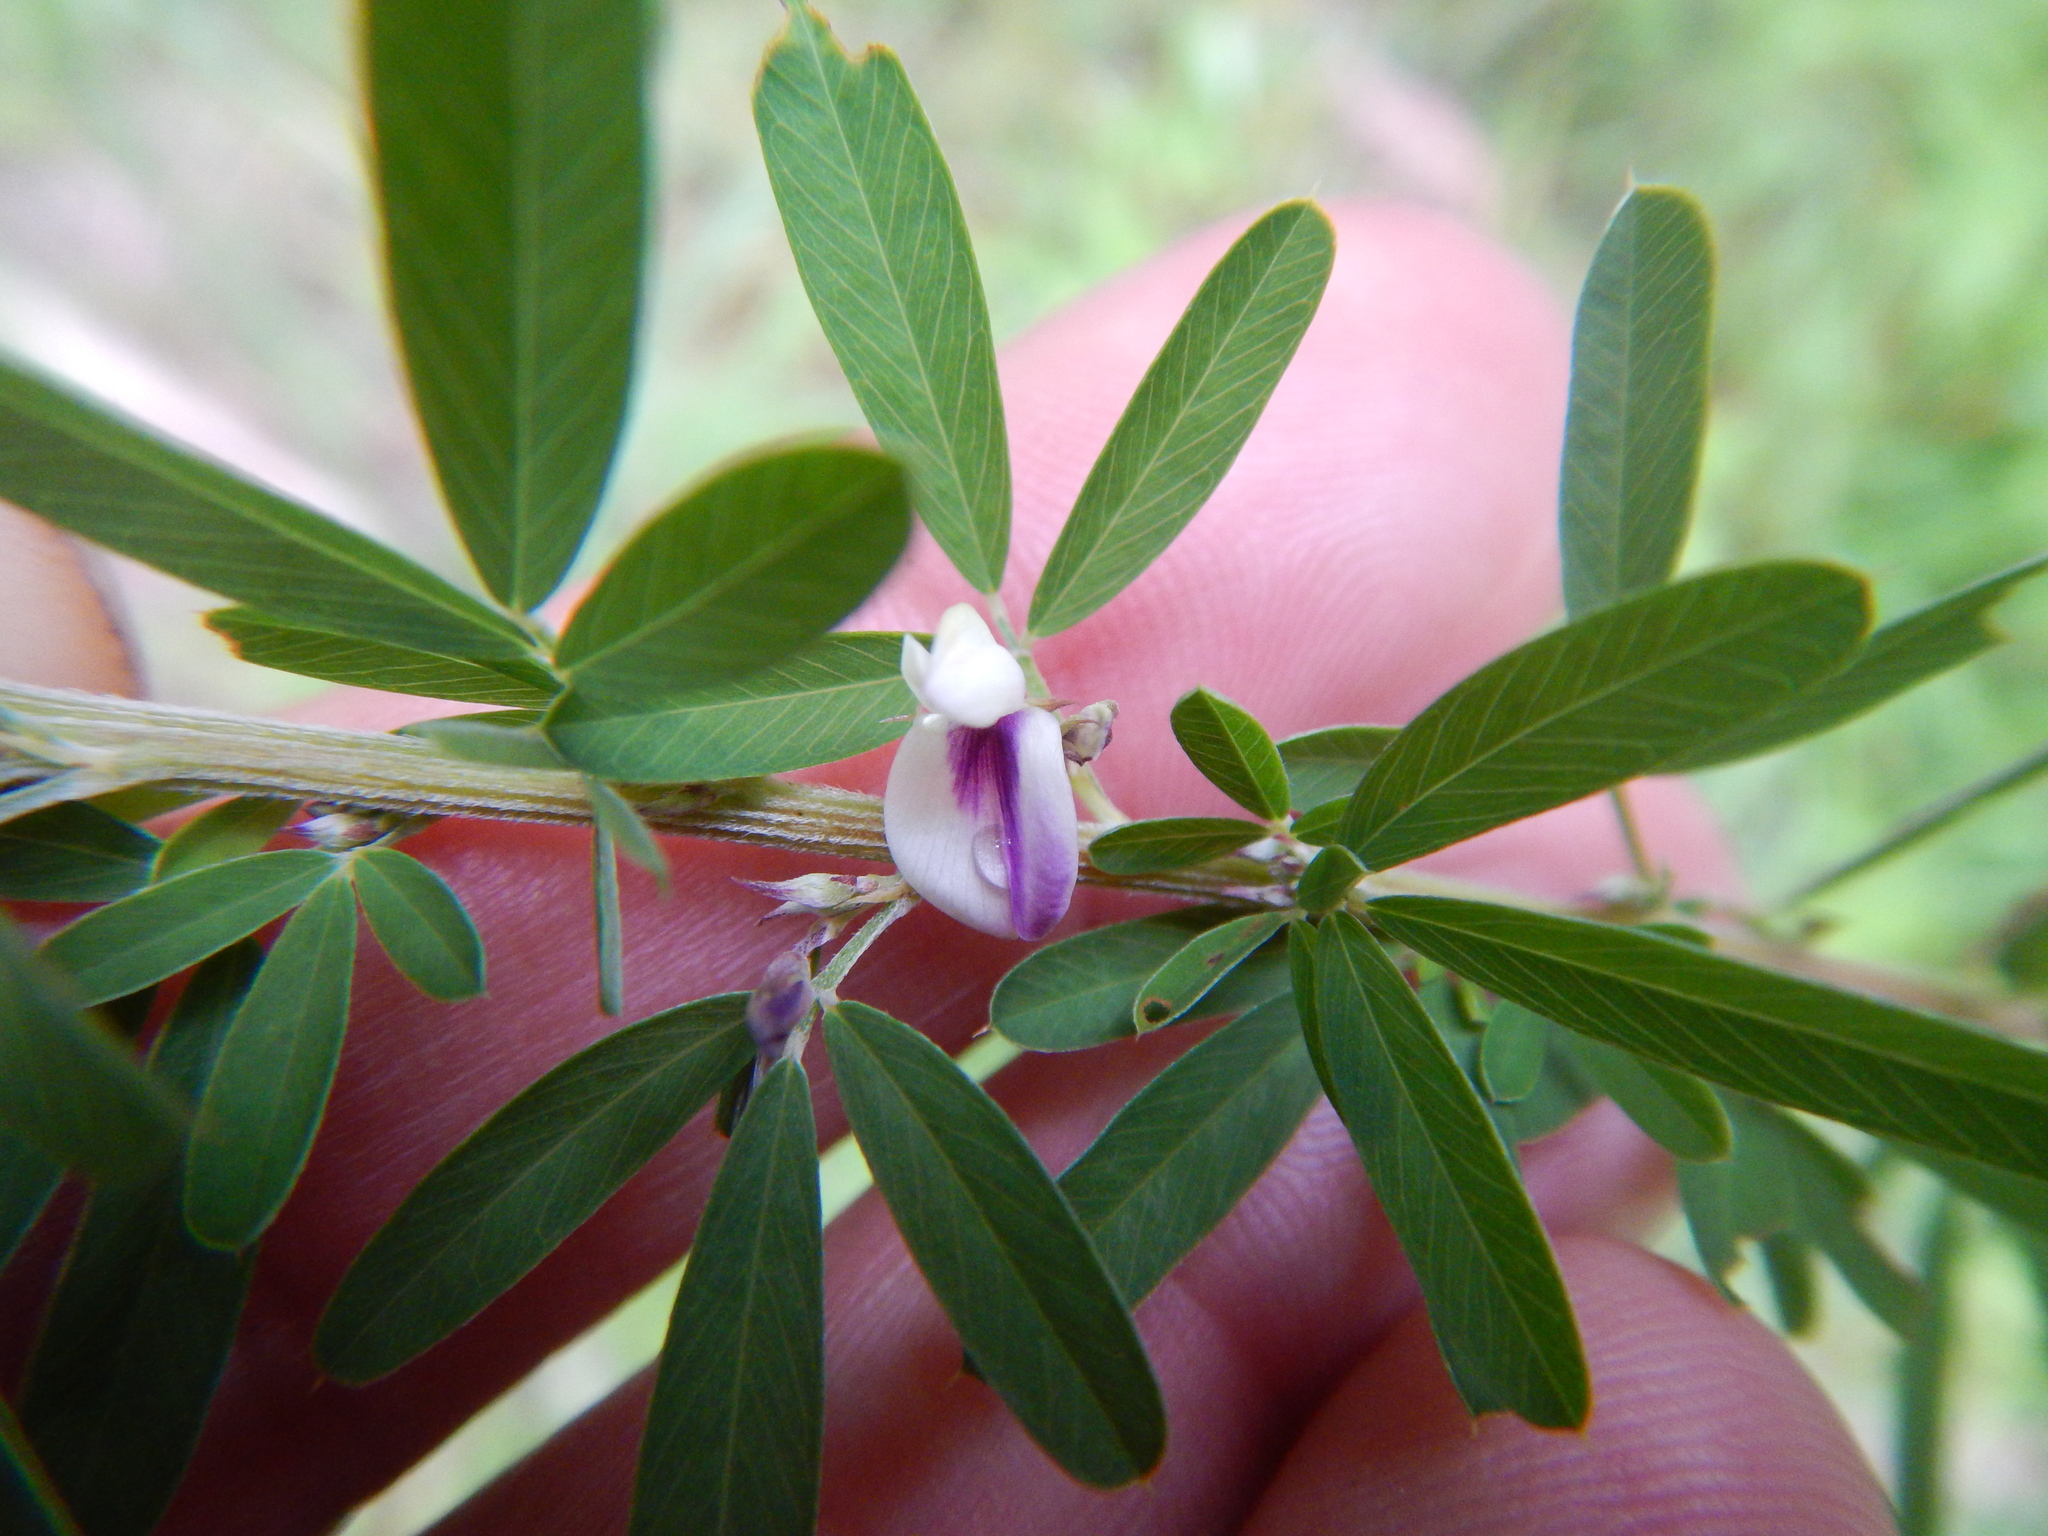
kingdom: Plantae
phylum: Tracheophyta
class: Magnoliopsida
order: Fabales
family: Fabaceae
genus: Lespedeza
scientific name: Lespedeza cuneata
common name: Chinese bush-clover
